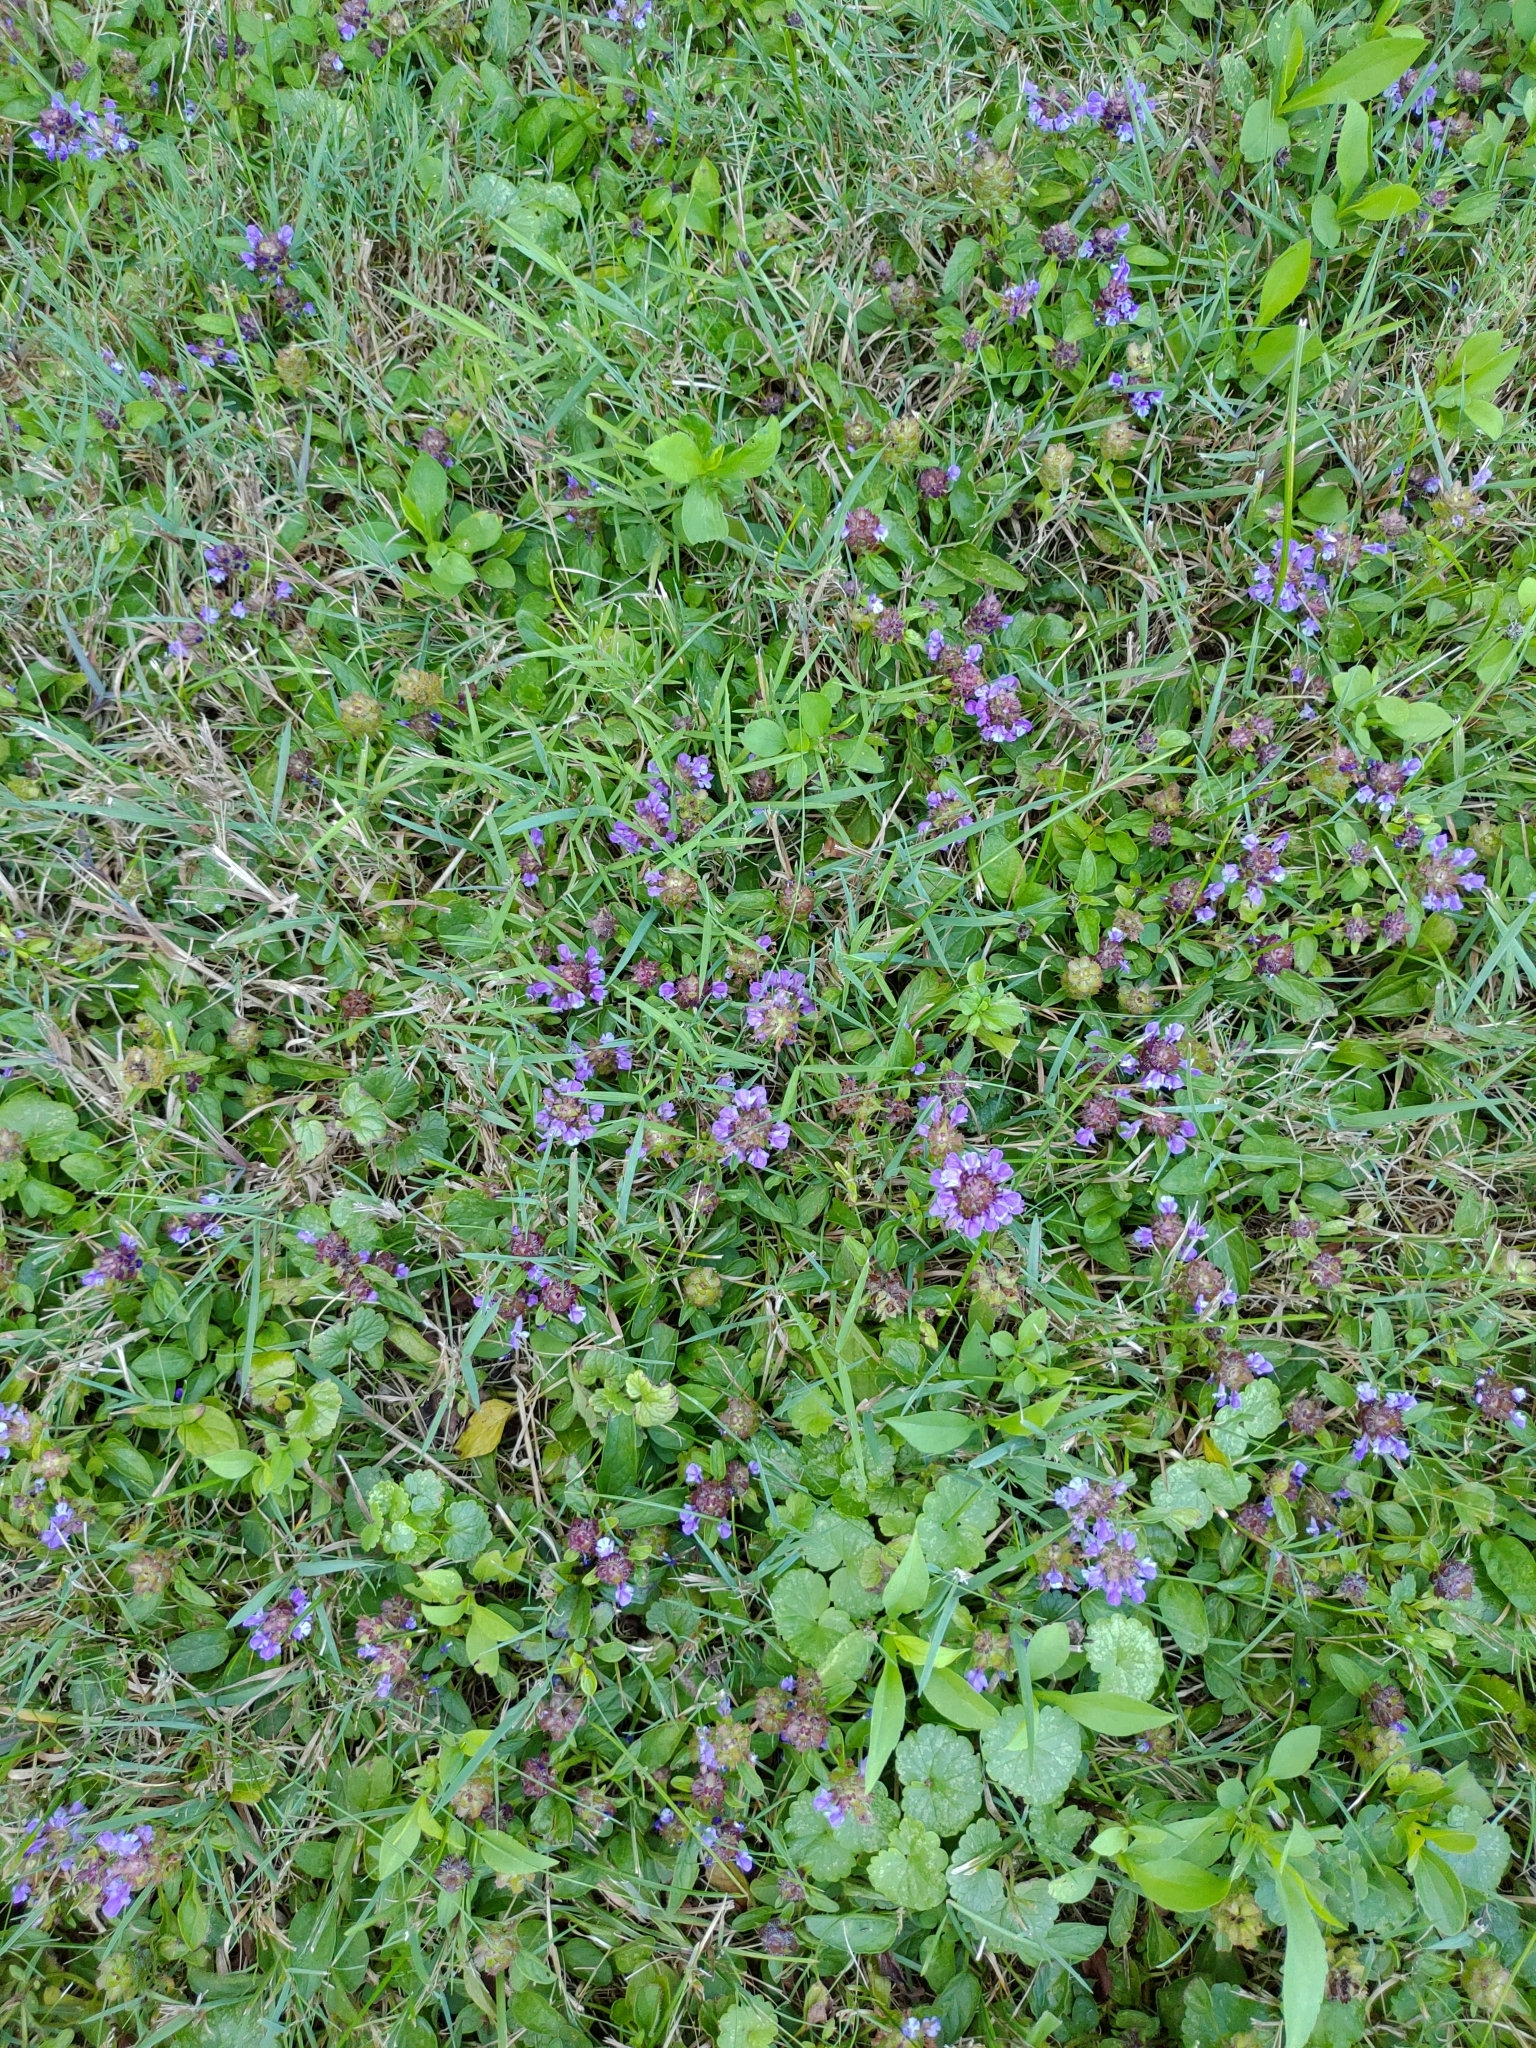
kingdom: Plantae
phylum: Tracheophyta
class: Magnoliopsida
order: Lamiales
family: Lamiaceae
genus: Prunella
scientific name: Prunella vulgaris
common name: Heal-all
